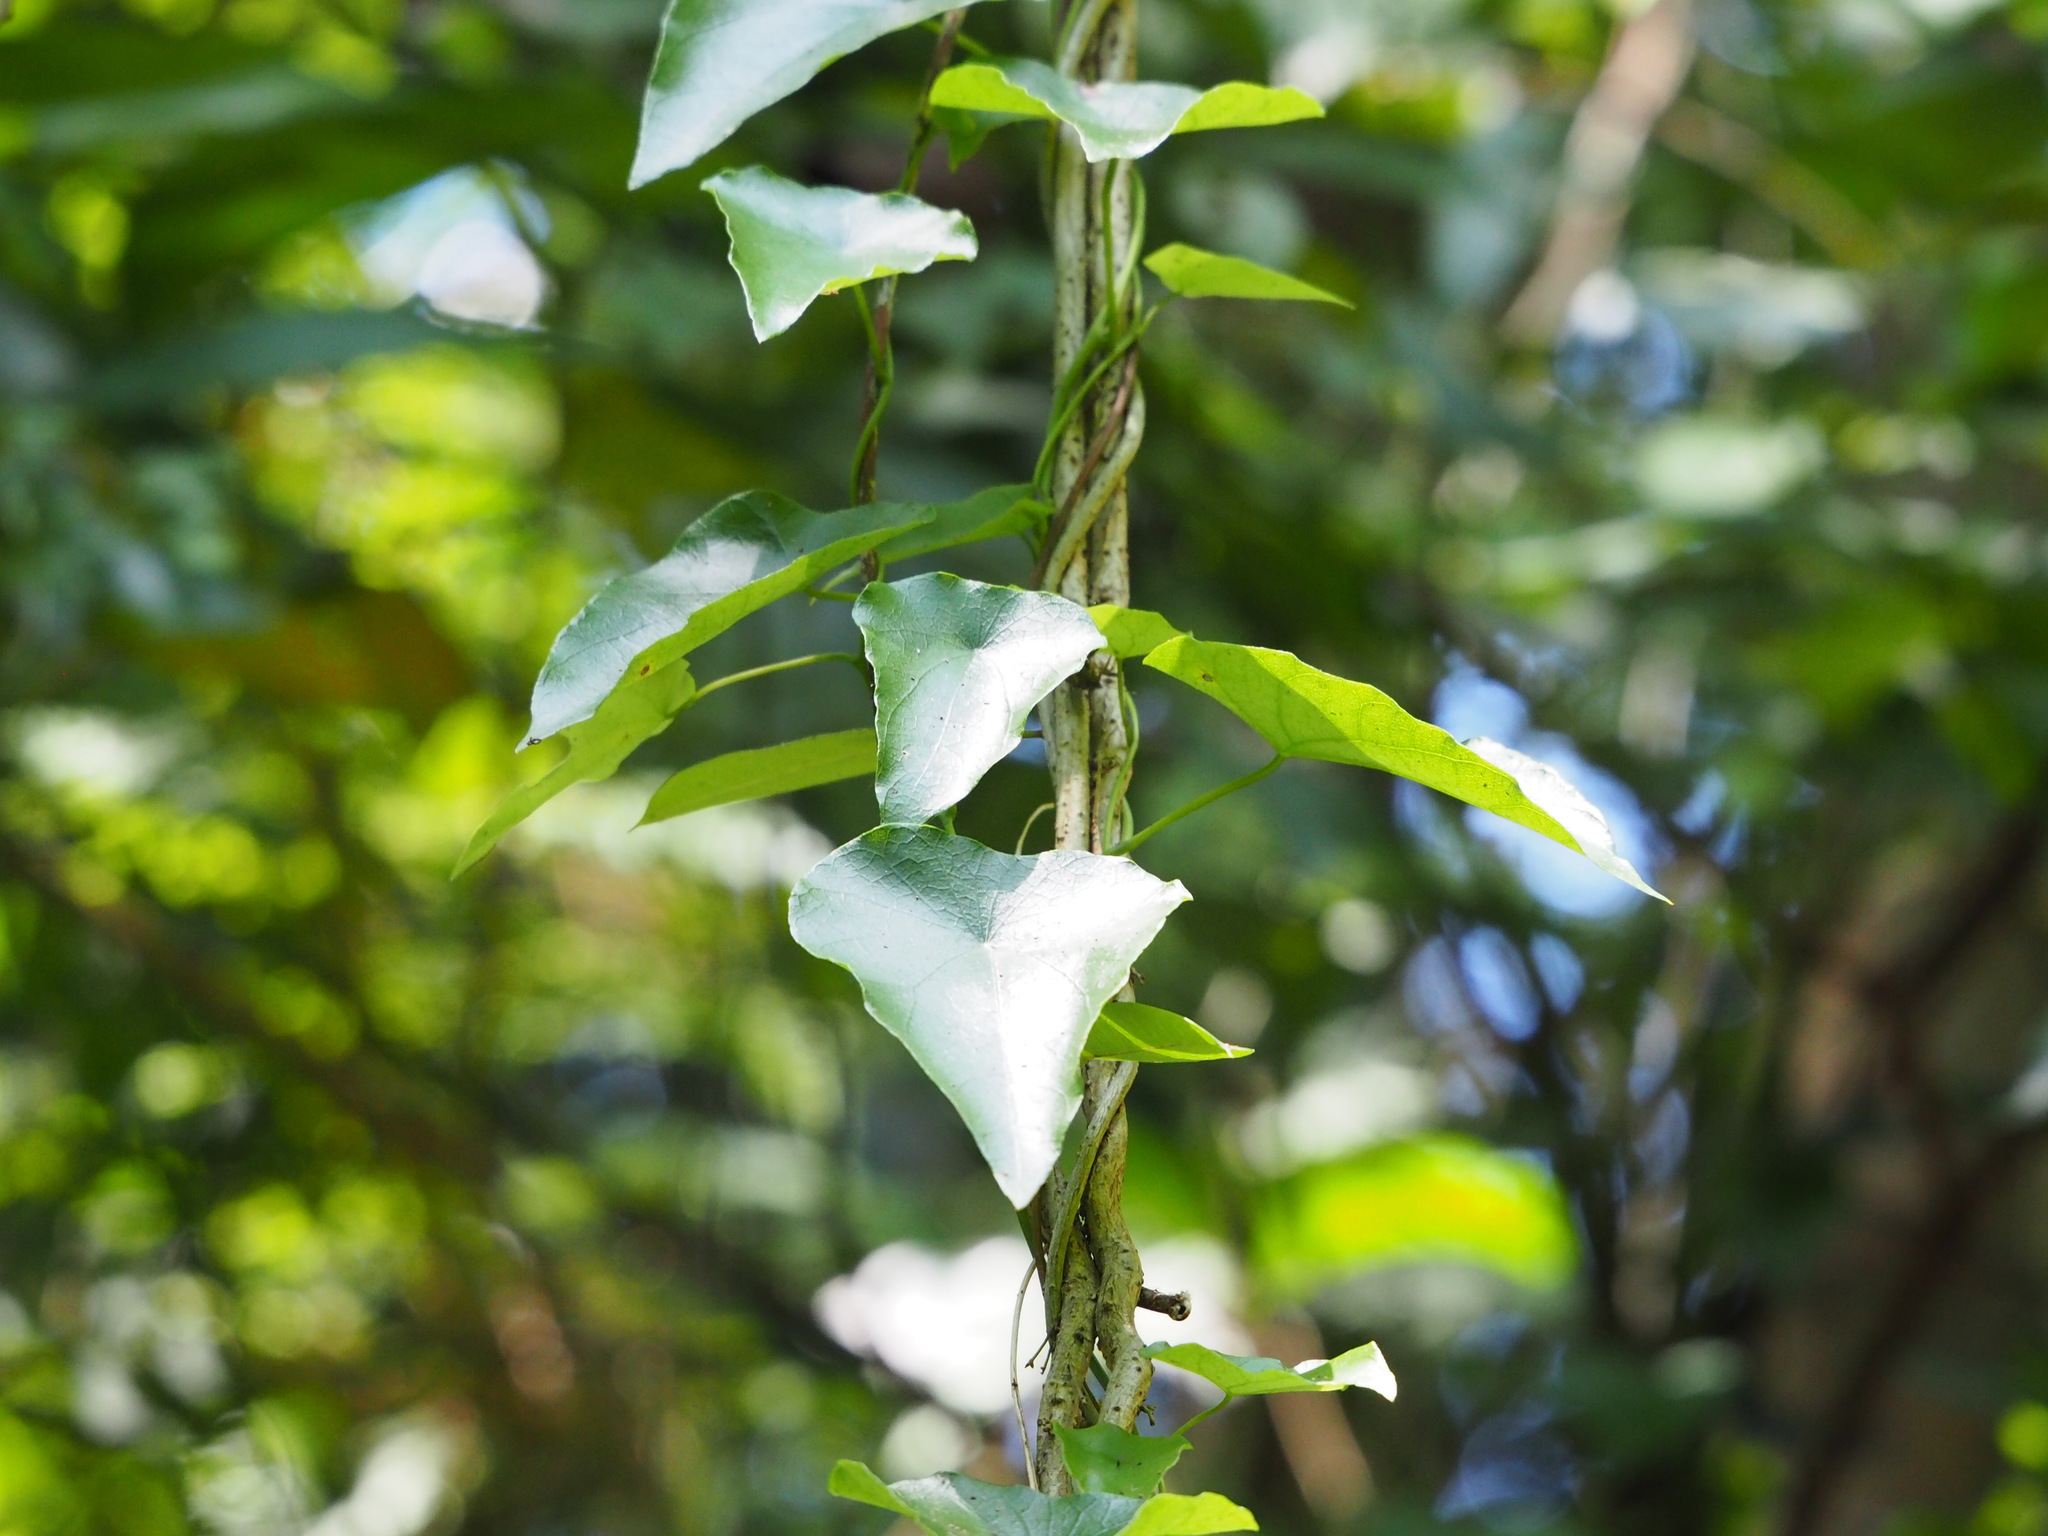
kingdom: Plantae
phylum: Tracheophyta
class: Magnoliopsida
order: Ranunculales
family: Menispermaceae
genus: Stephania
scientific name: Stephania japonica
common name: Snake vine
